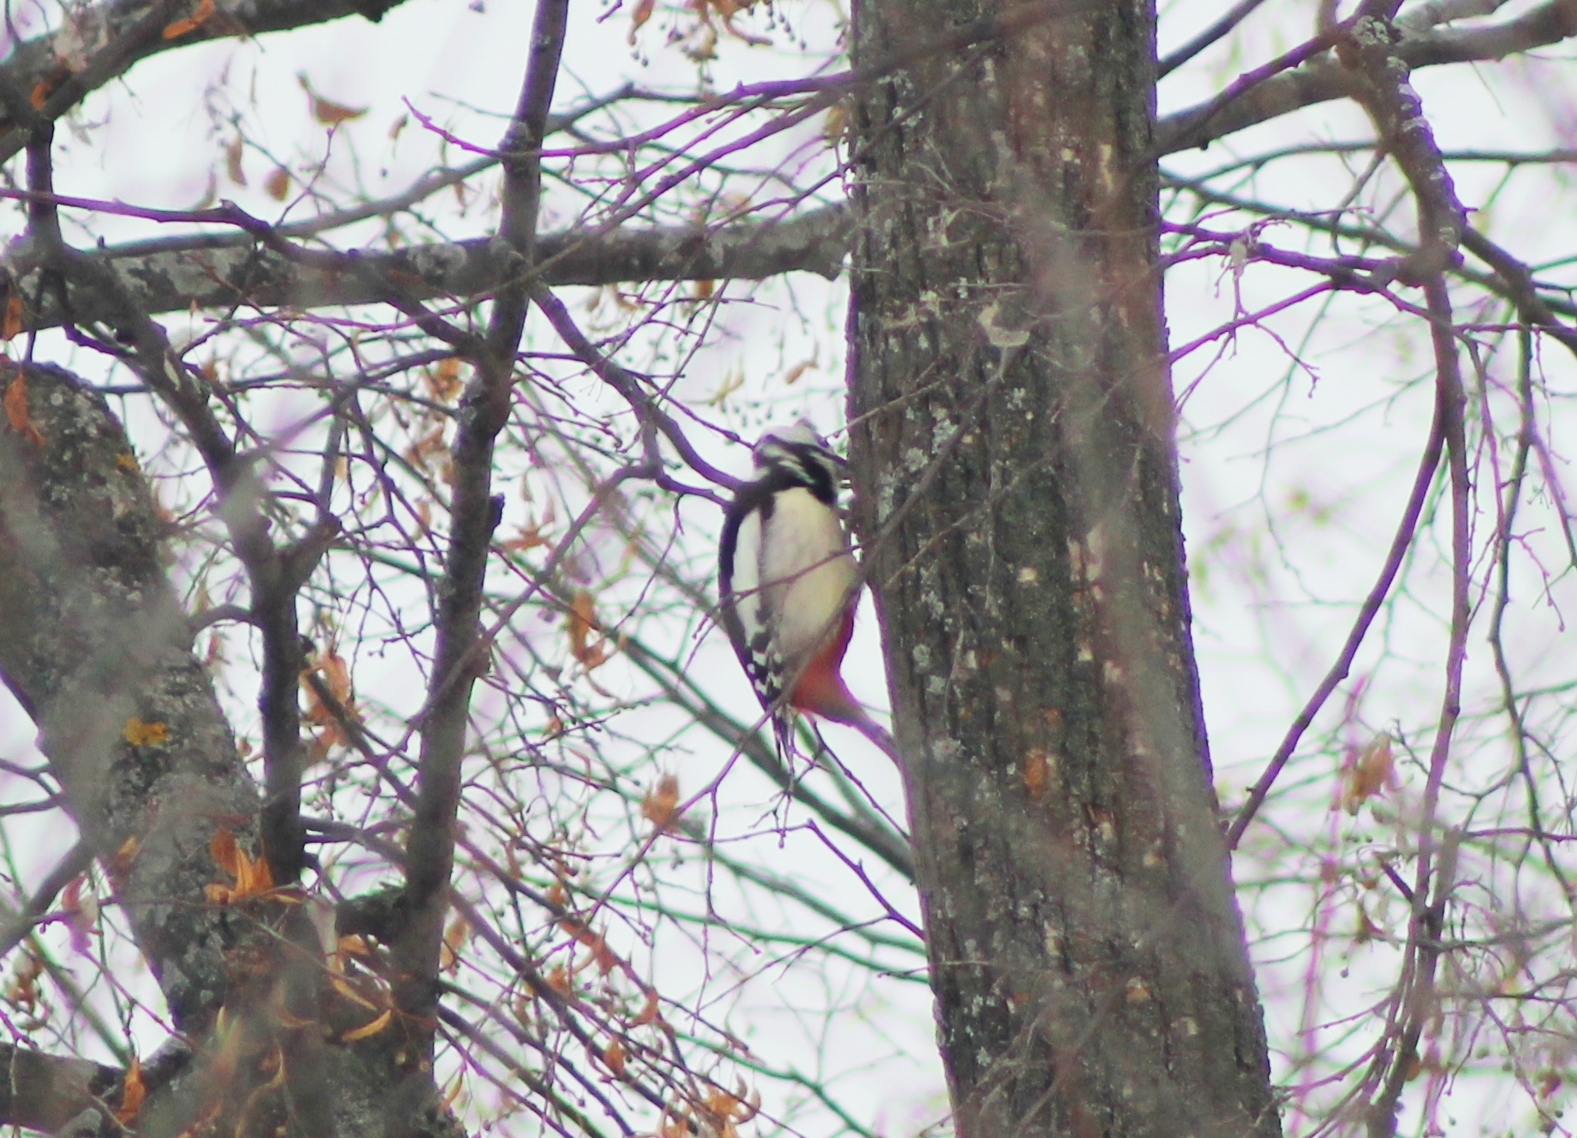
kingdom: Animalia
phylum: Chordata
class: Aves
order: Piciformes
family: Picidae
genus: Dendrocopos
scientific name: Dendrocopos major
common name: Great spotted woodpecker
